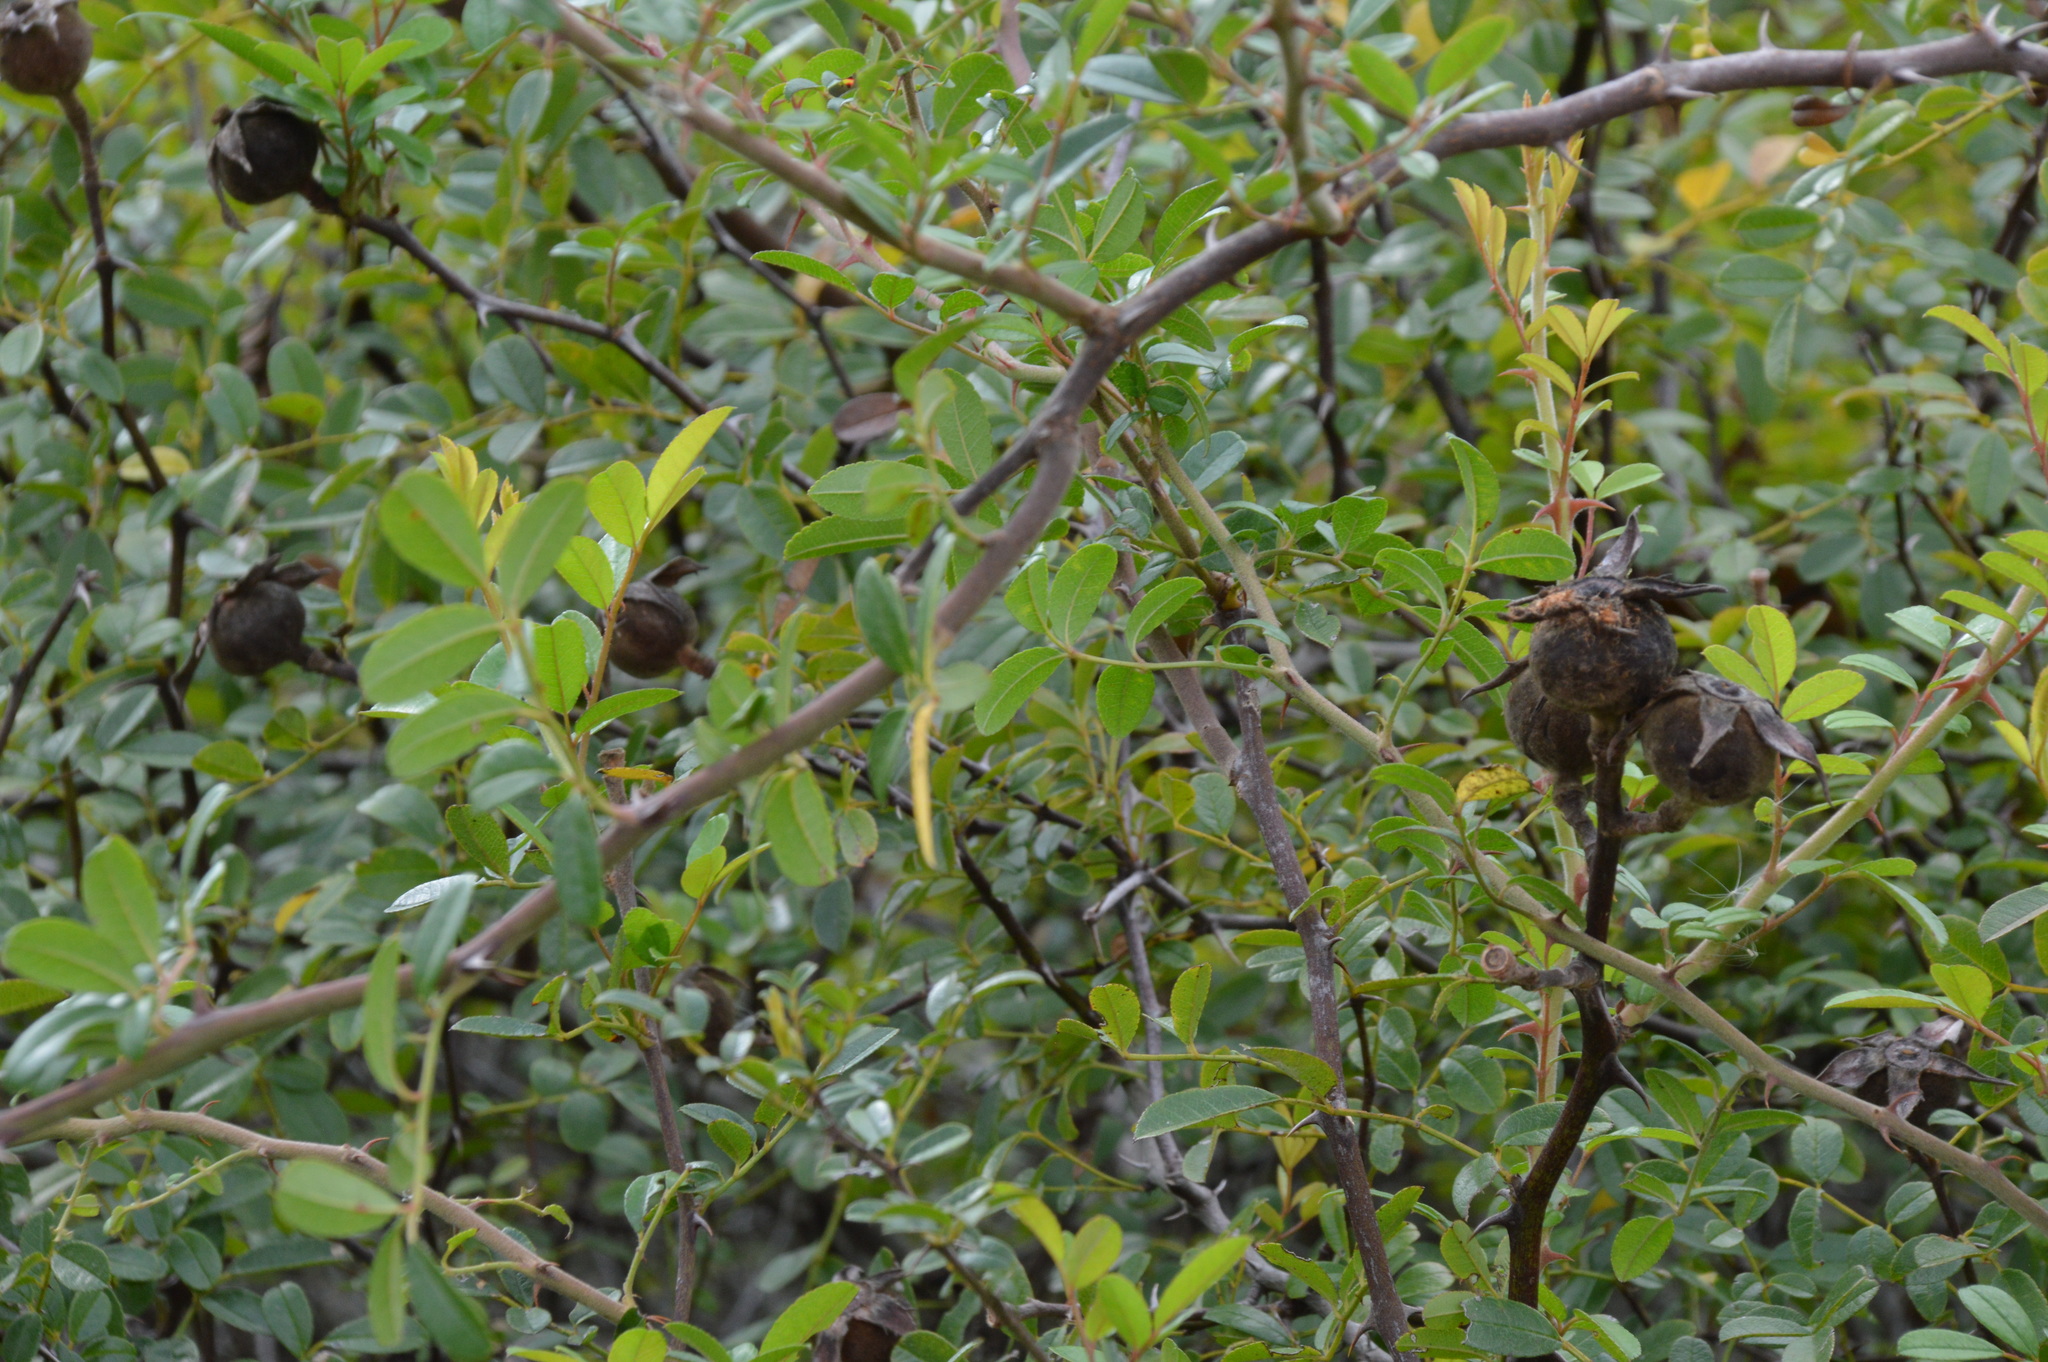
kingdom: Plantae
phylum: Tracheophyta
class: Magnoliopsida
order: Rosales
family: Rosaceae
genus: Rosa
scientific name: Rosa bracteata
